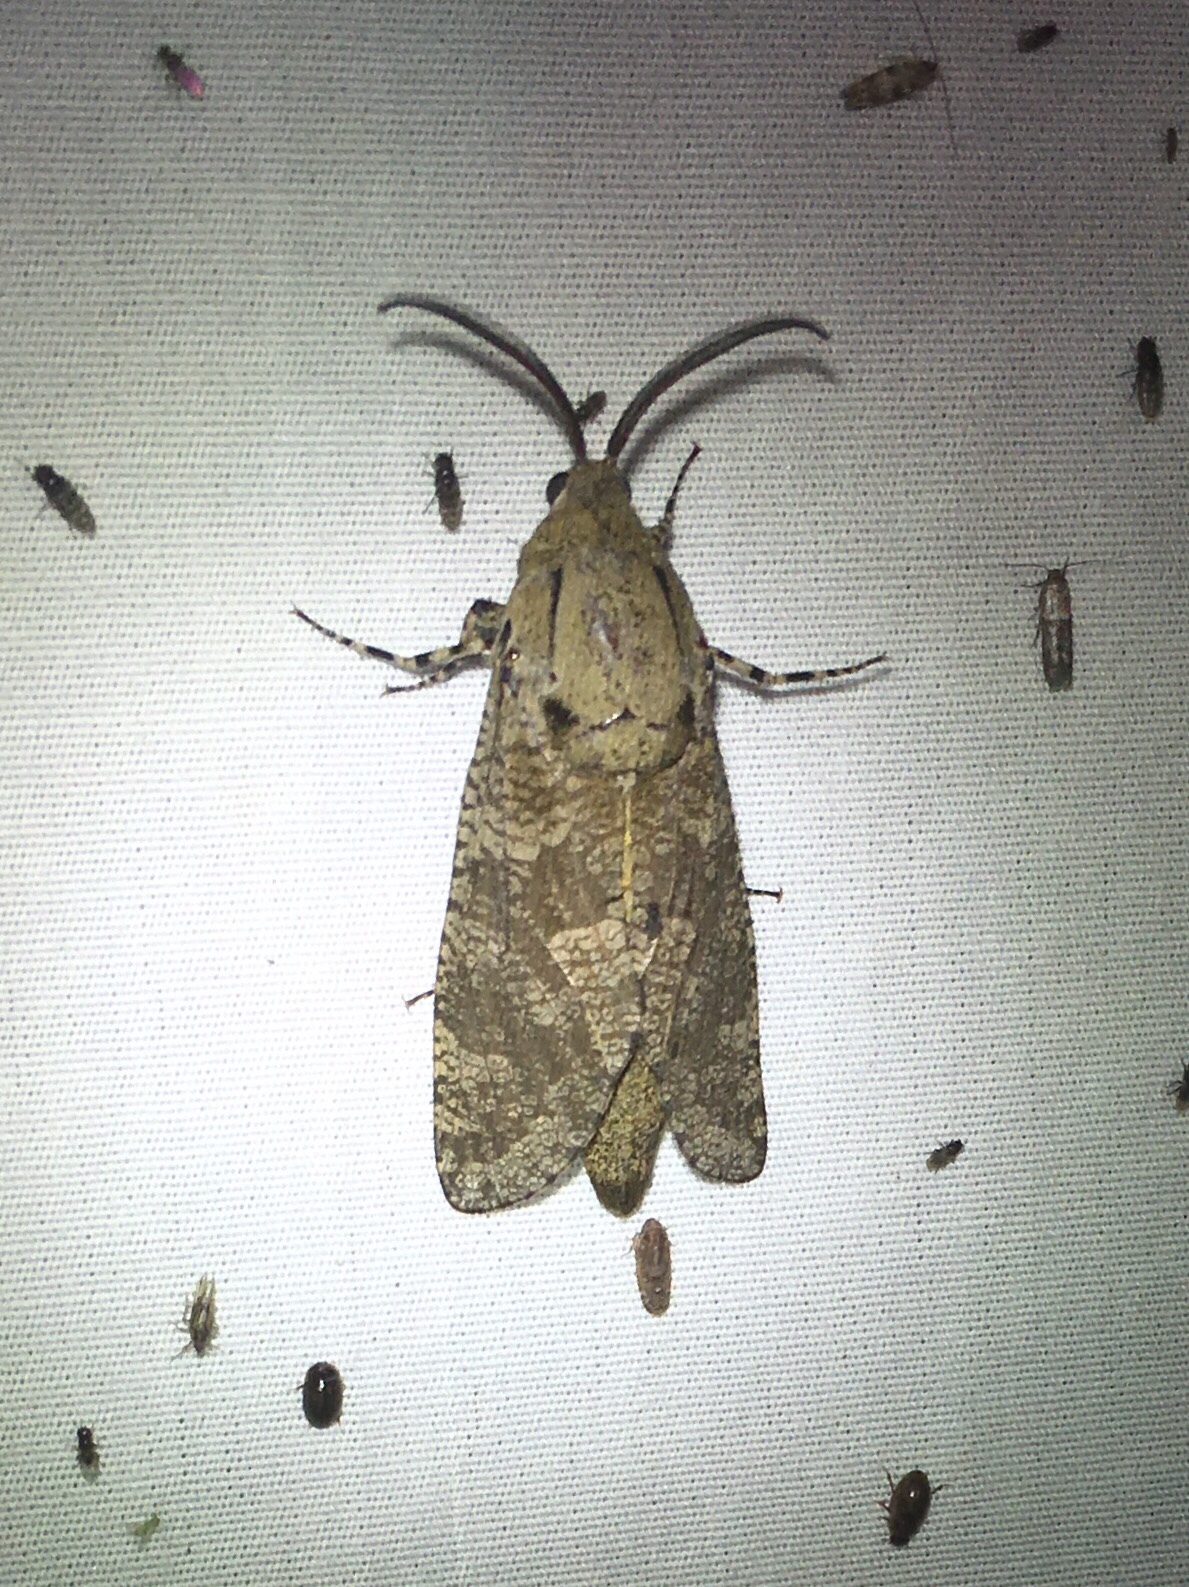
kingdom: Animalia
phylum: Arthropoda
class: Insecta
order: Lepidoptera
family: Cossidae
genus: Prionoxystus
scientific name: Prionoxystus robiniae
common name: Carpenterworm
